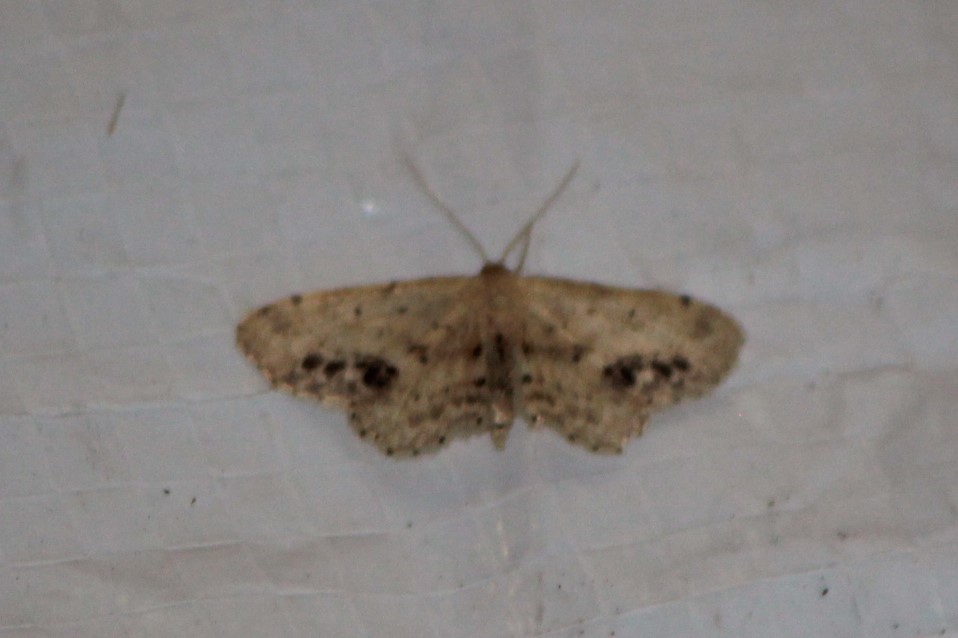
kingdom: Animalia
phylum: Arthropoda
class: Insecta
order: Lepidoptera
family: Geometridae
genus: Idaea
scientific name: Idaea dimidiata
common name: Single-dotted wave
